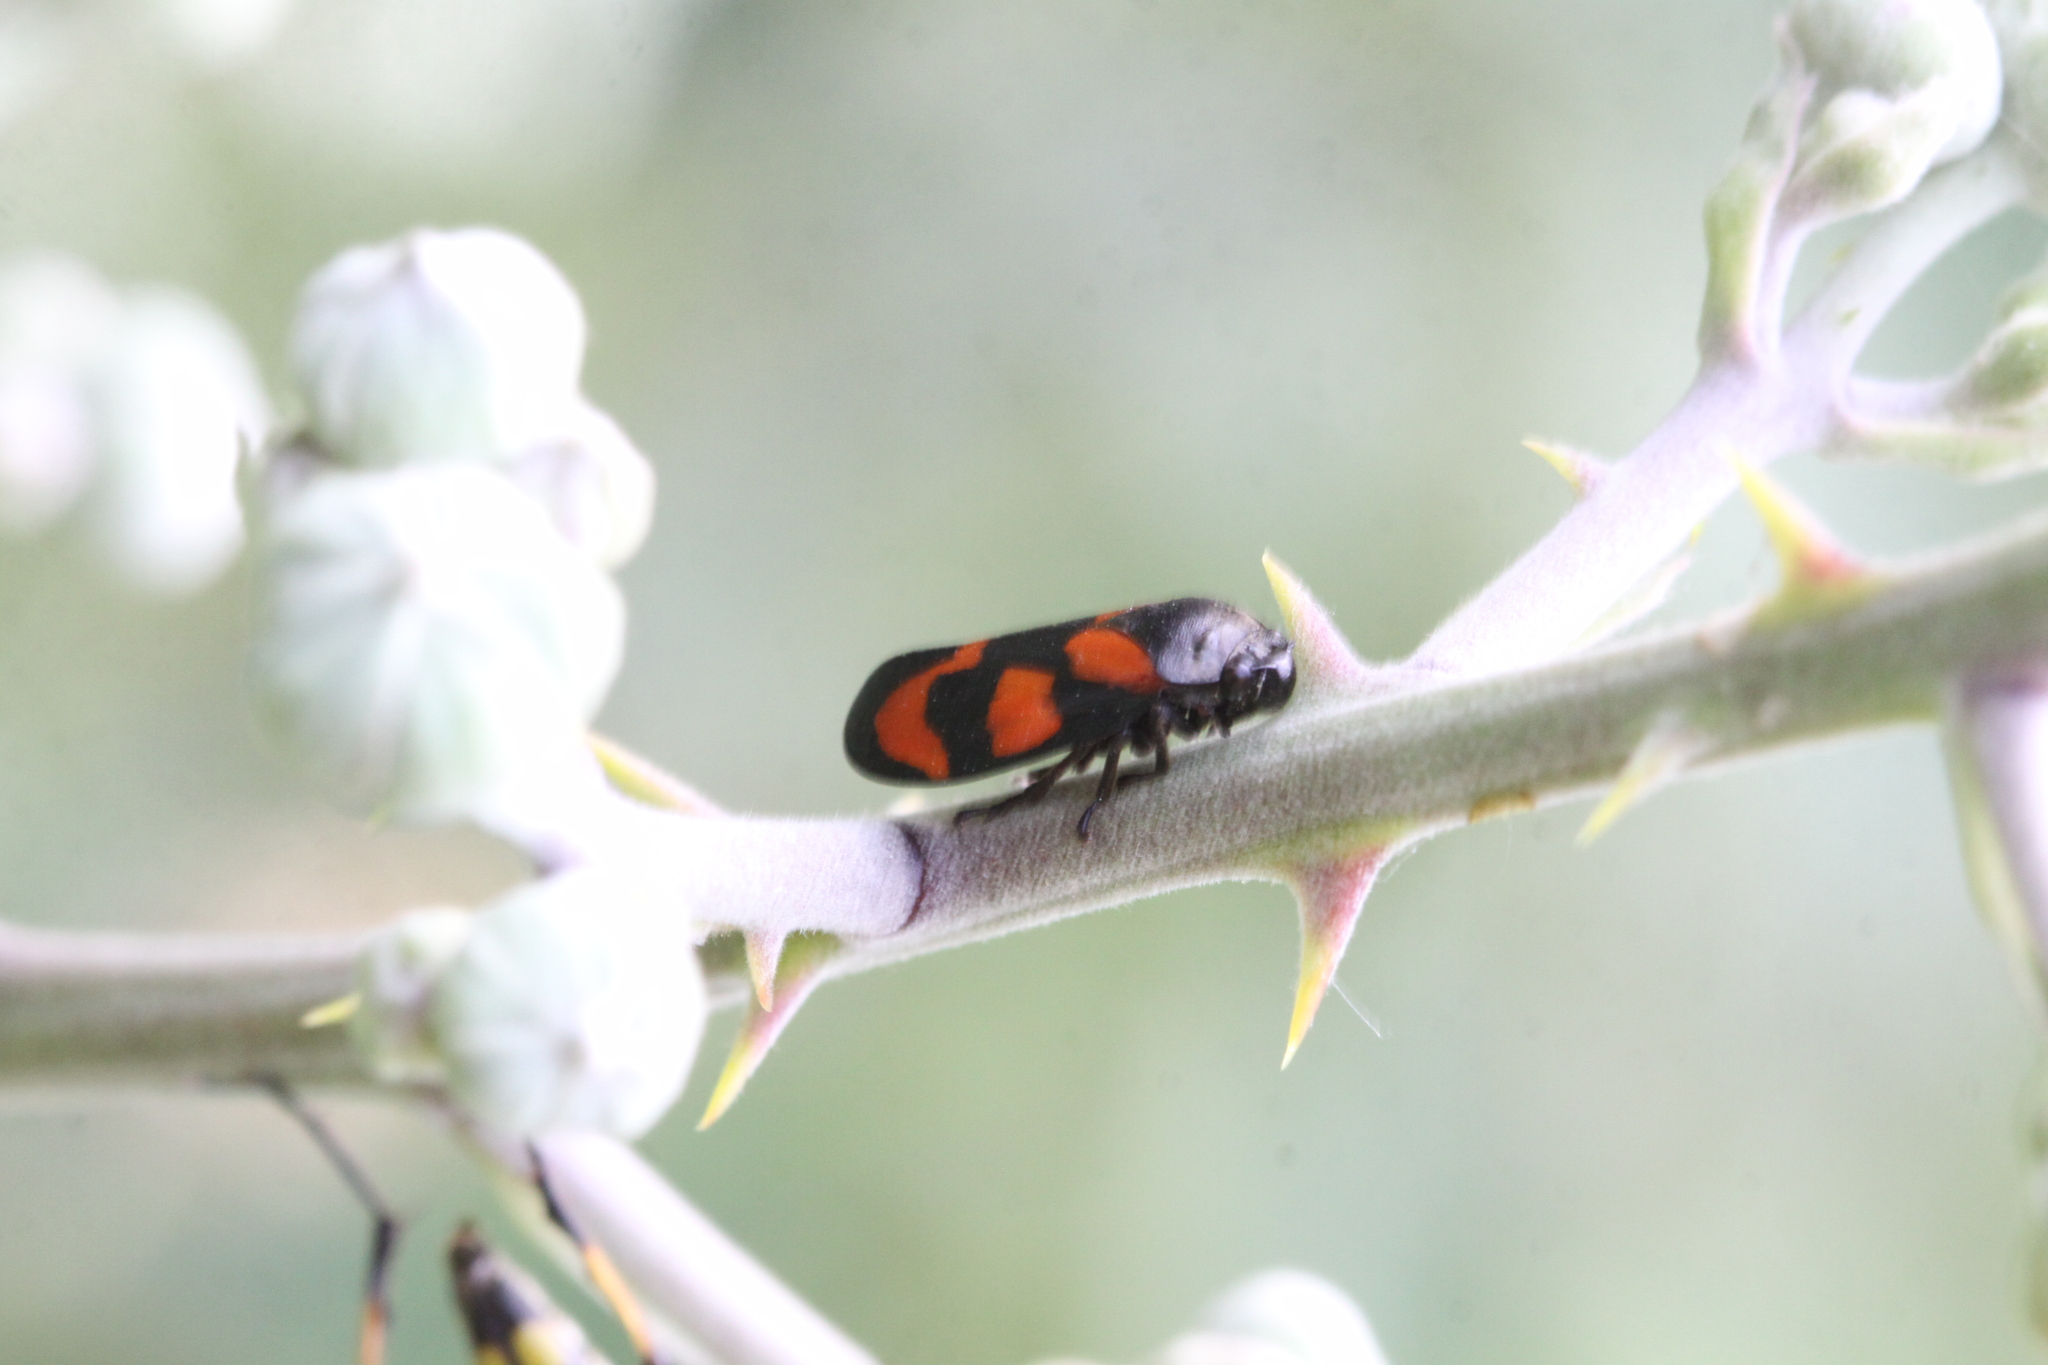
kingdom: Animalia
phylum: Arthropoda
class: Insecta
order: Hemiptera
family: Cercopidae
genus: Cercopis
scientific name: Cercopis vulnerata
